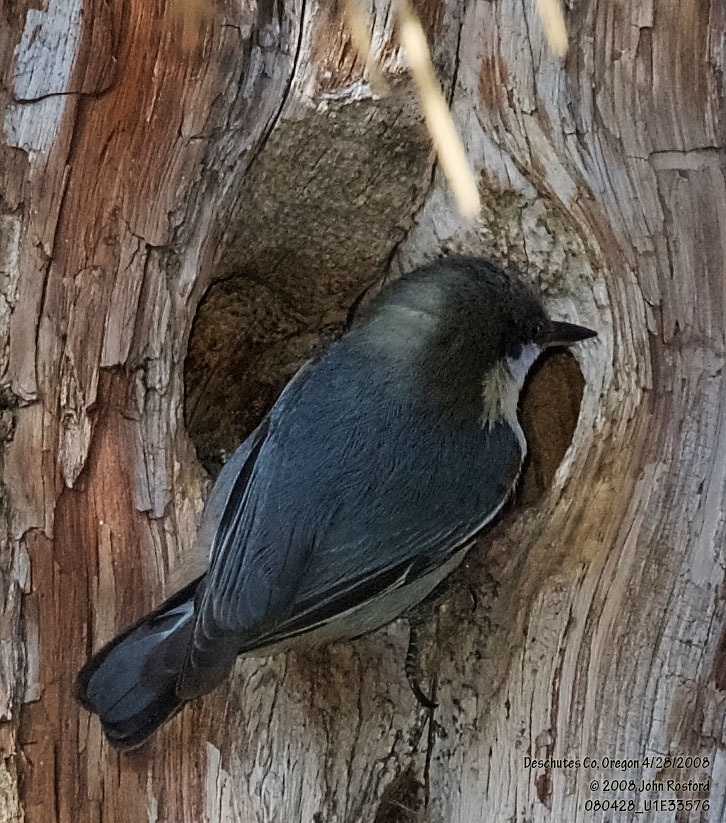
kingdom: Animalia
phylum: Chordata
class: Aves
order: Passeriformes
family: Sittidae
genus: Sitta
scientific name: Sitta pygmaea
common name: Pygmy nuthatch
